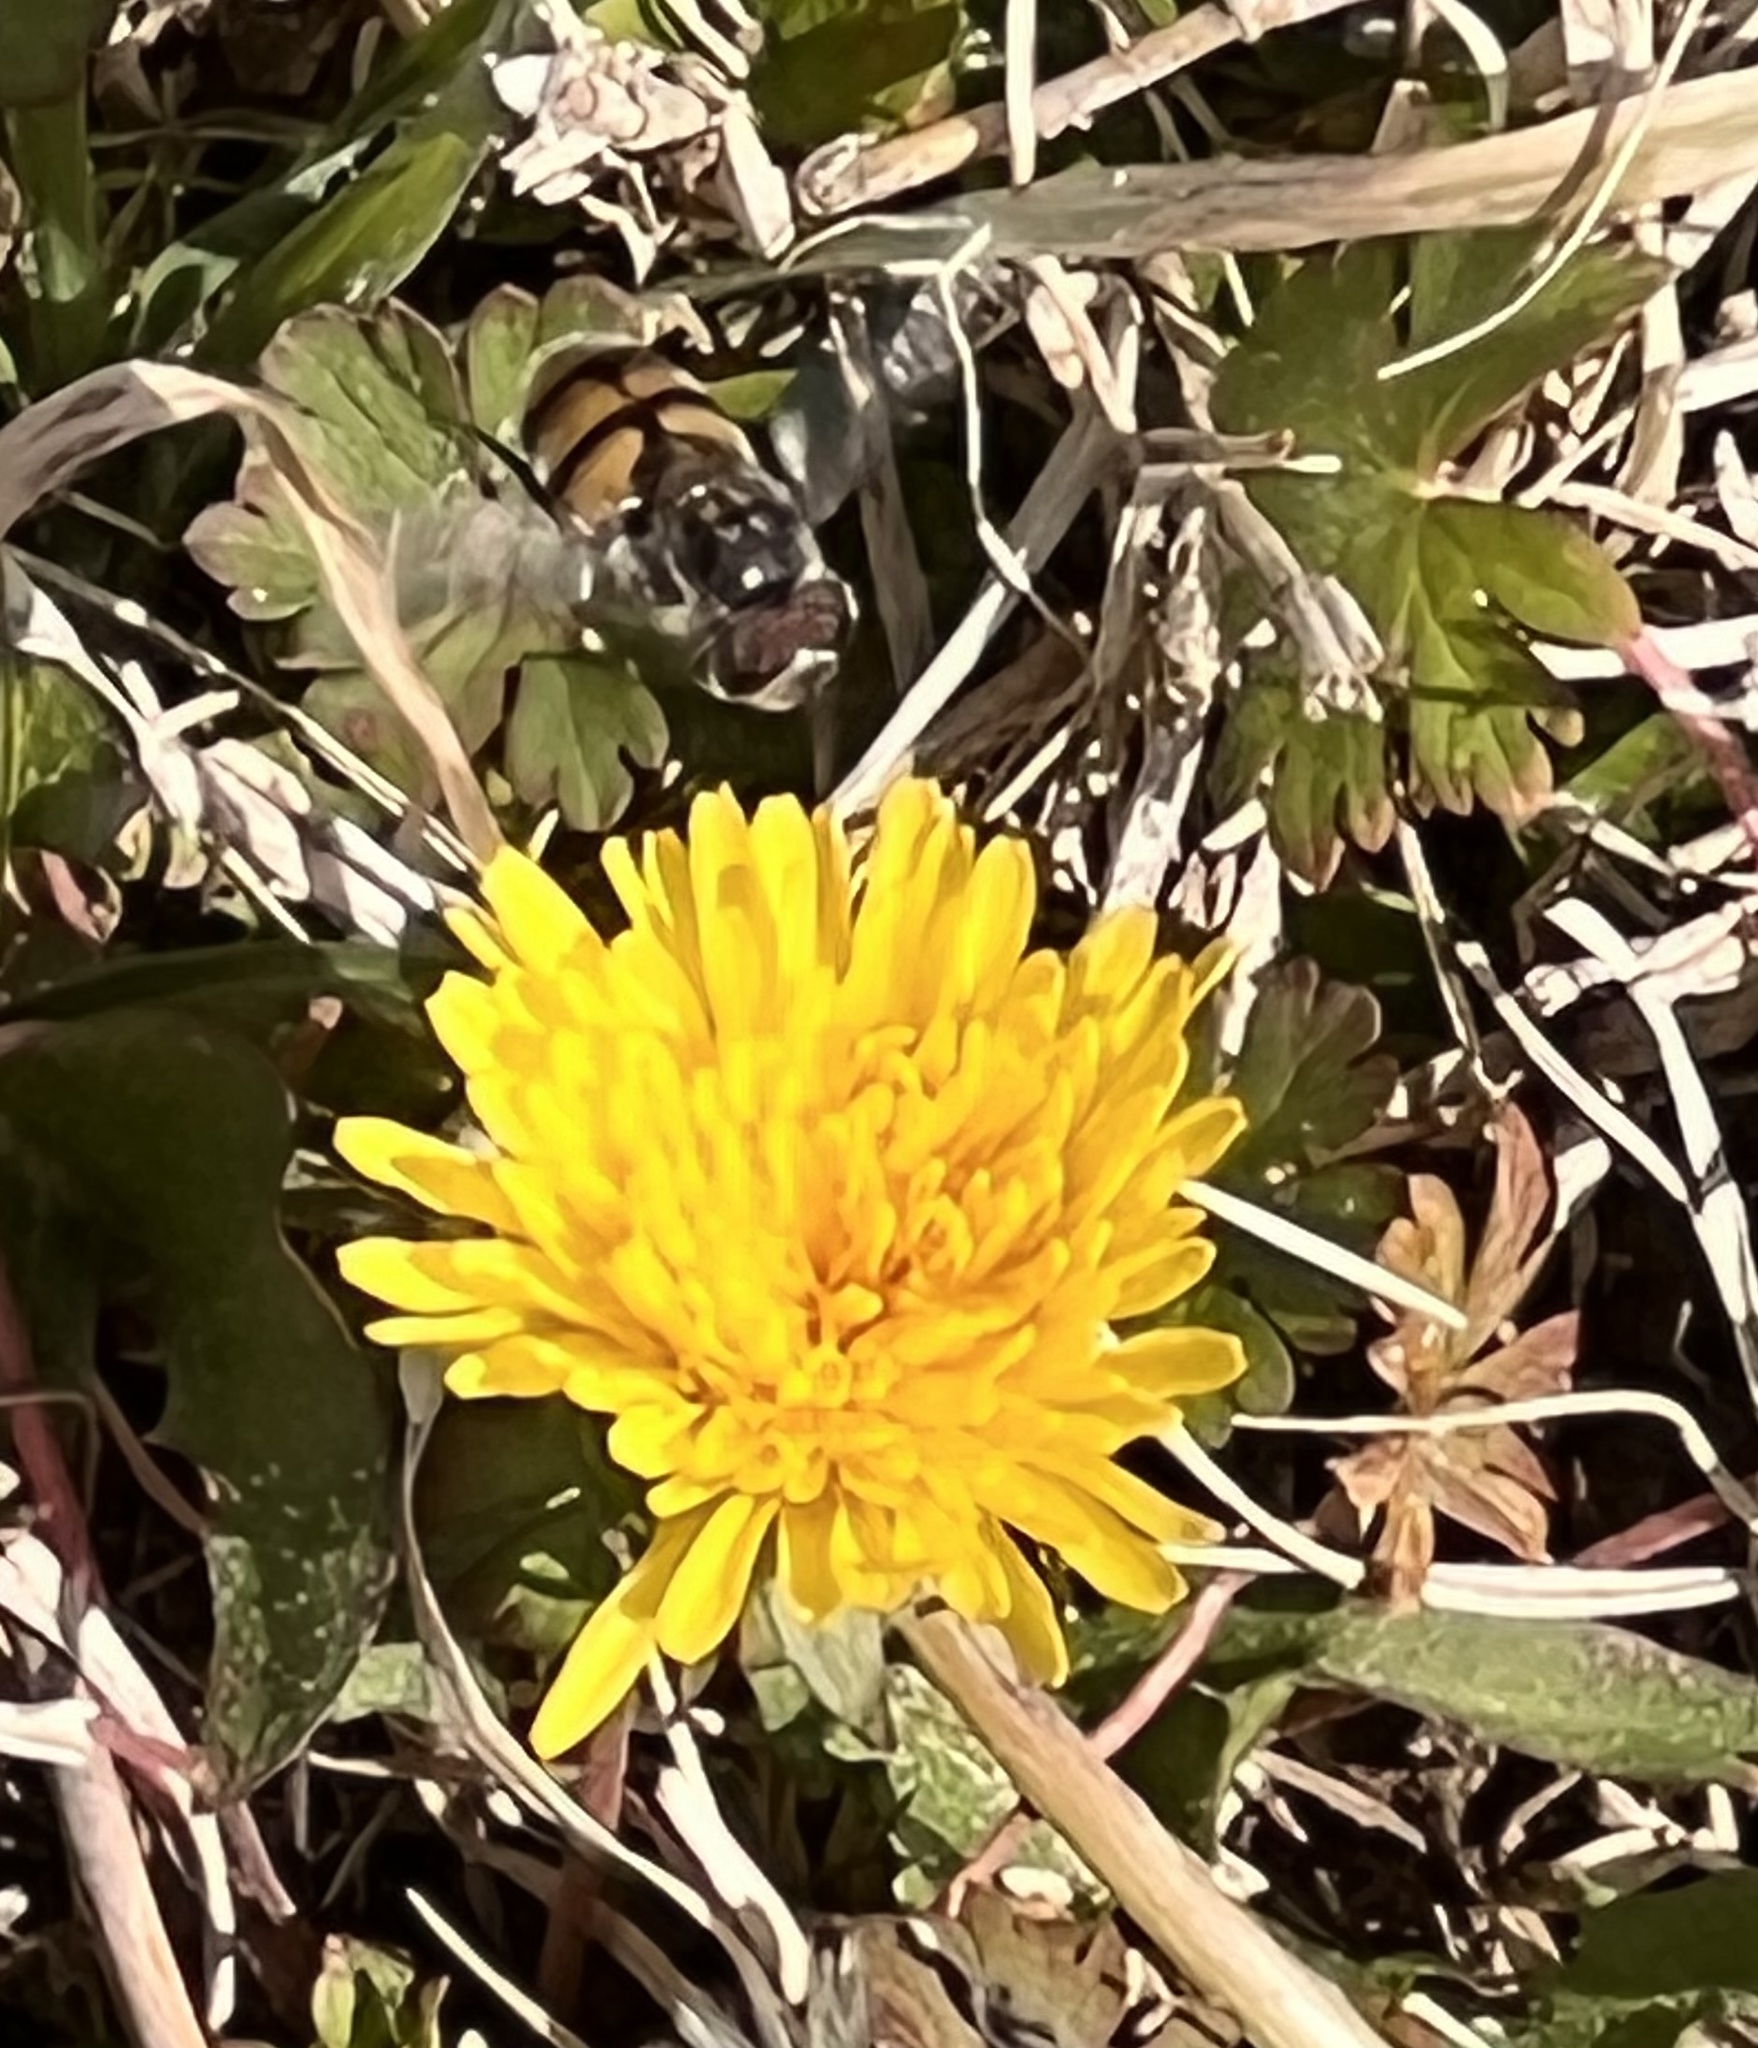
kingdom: Animalia
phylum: Arthropoda
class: Insecta
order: Diptera
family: Syrphidae
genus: Copestylum
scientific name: Copestylum avidum
